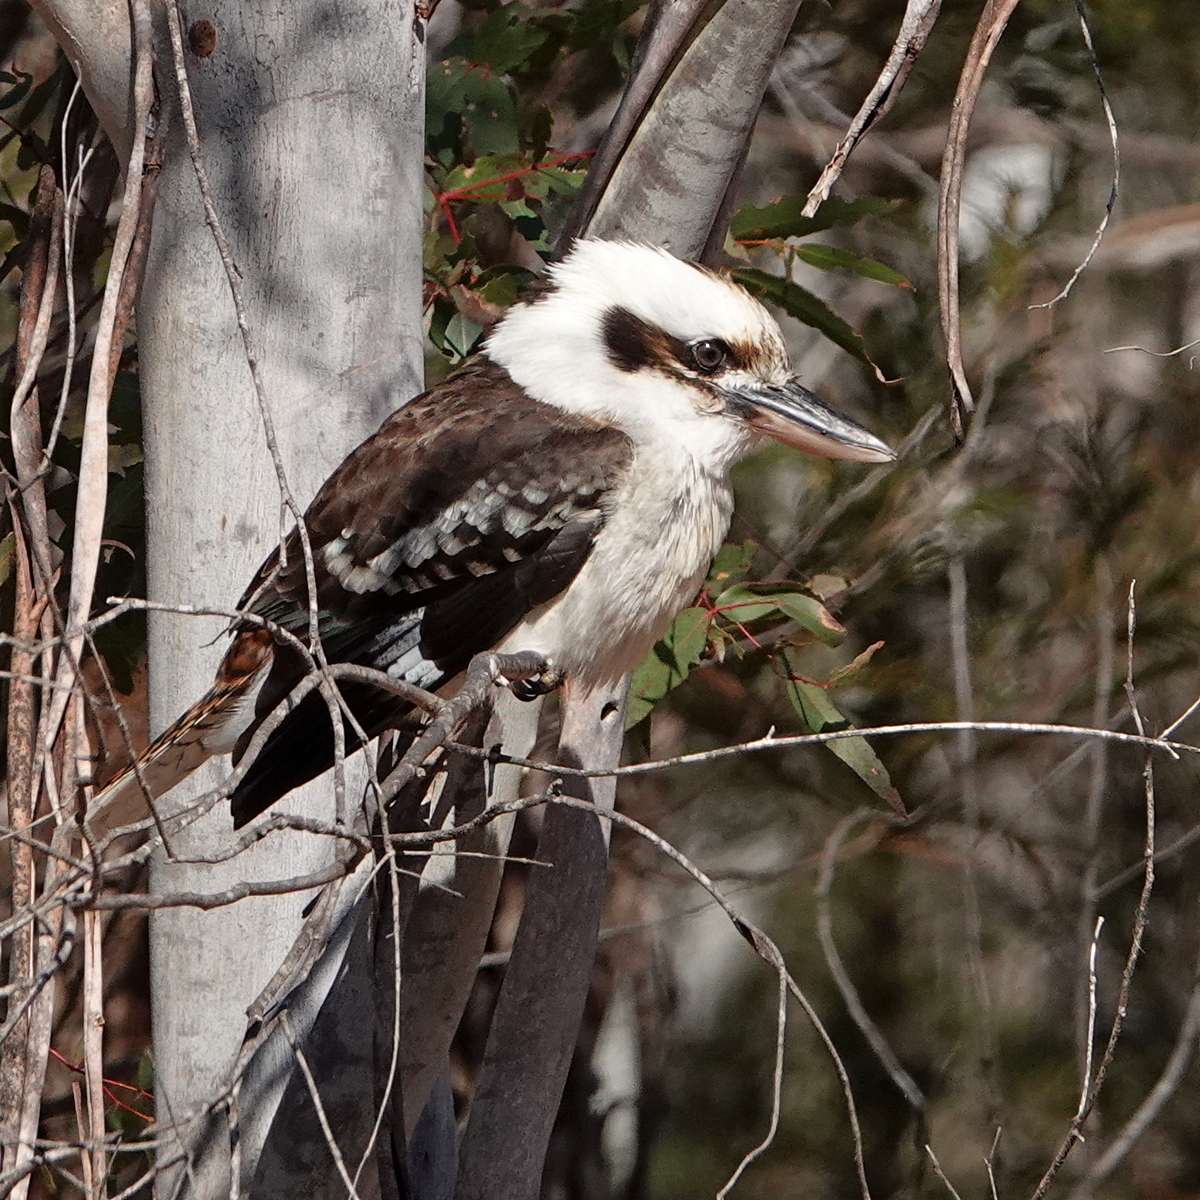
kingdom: Animalia
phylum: Chordata
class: Aves
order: Coraciiformes
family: Alcedinidae
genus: Dacelo
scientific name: Dacelo novaeguineae
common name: Laughing kookaburra
